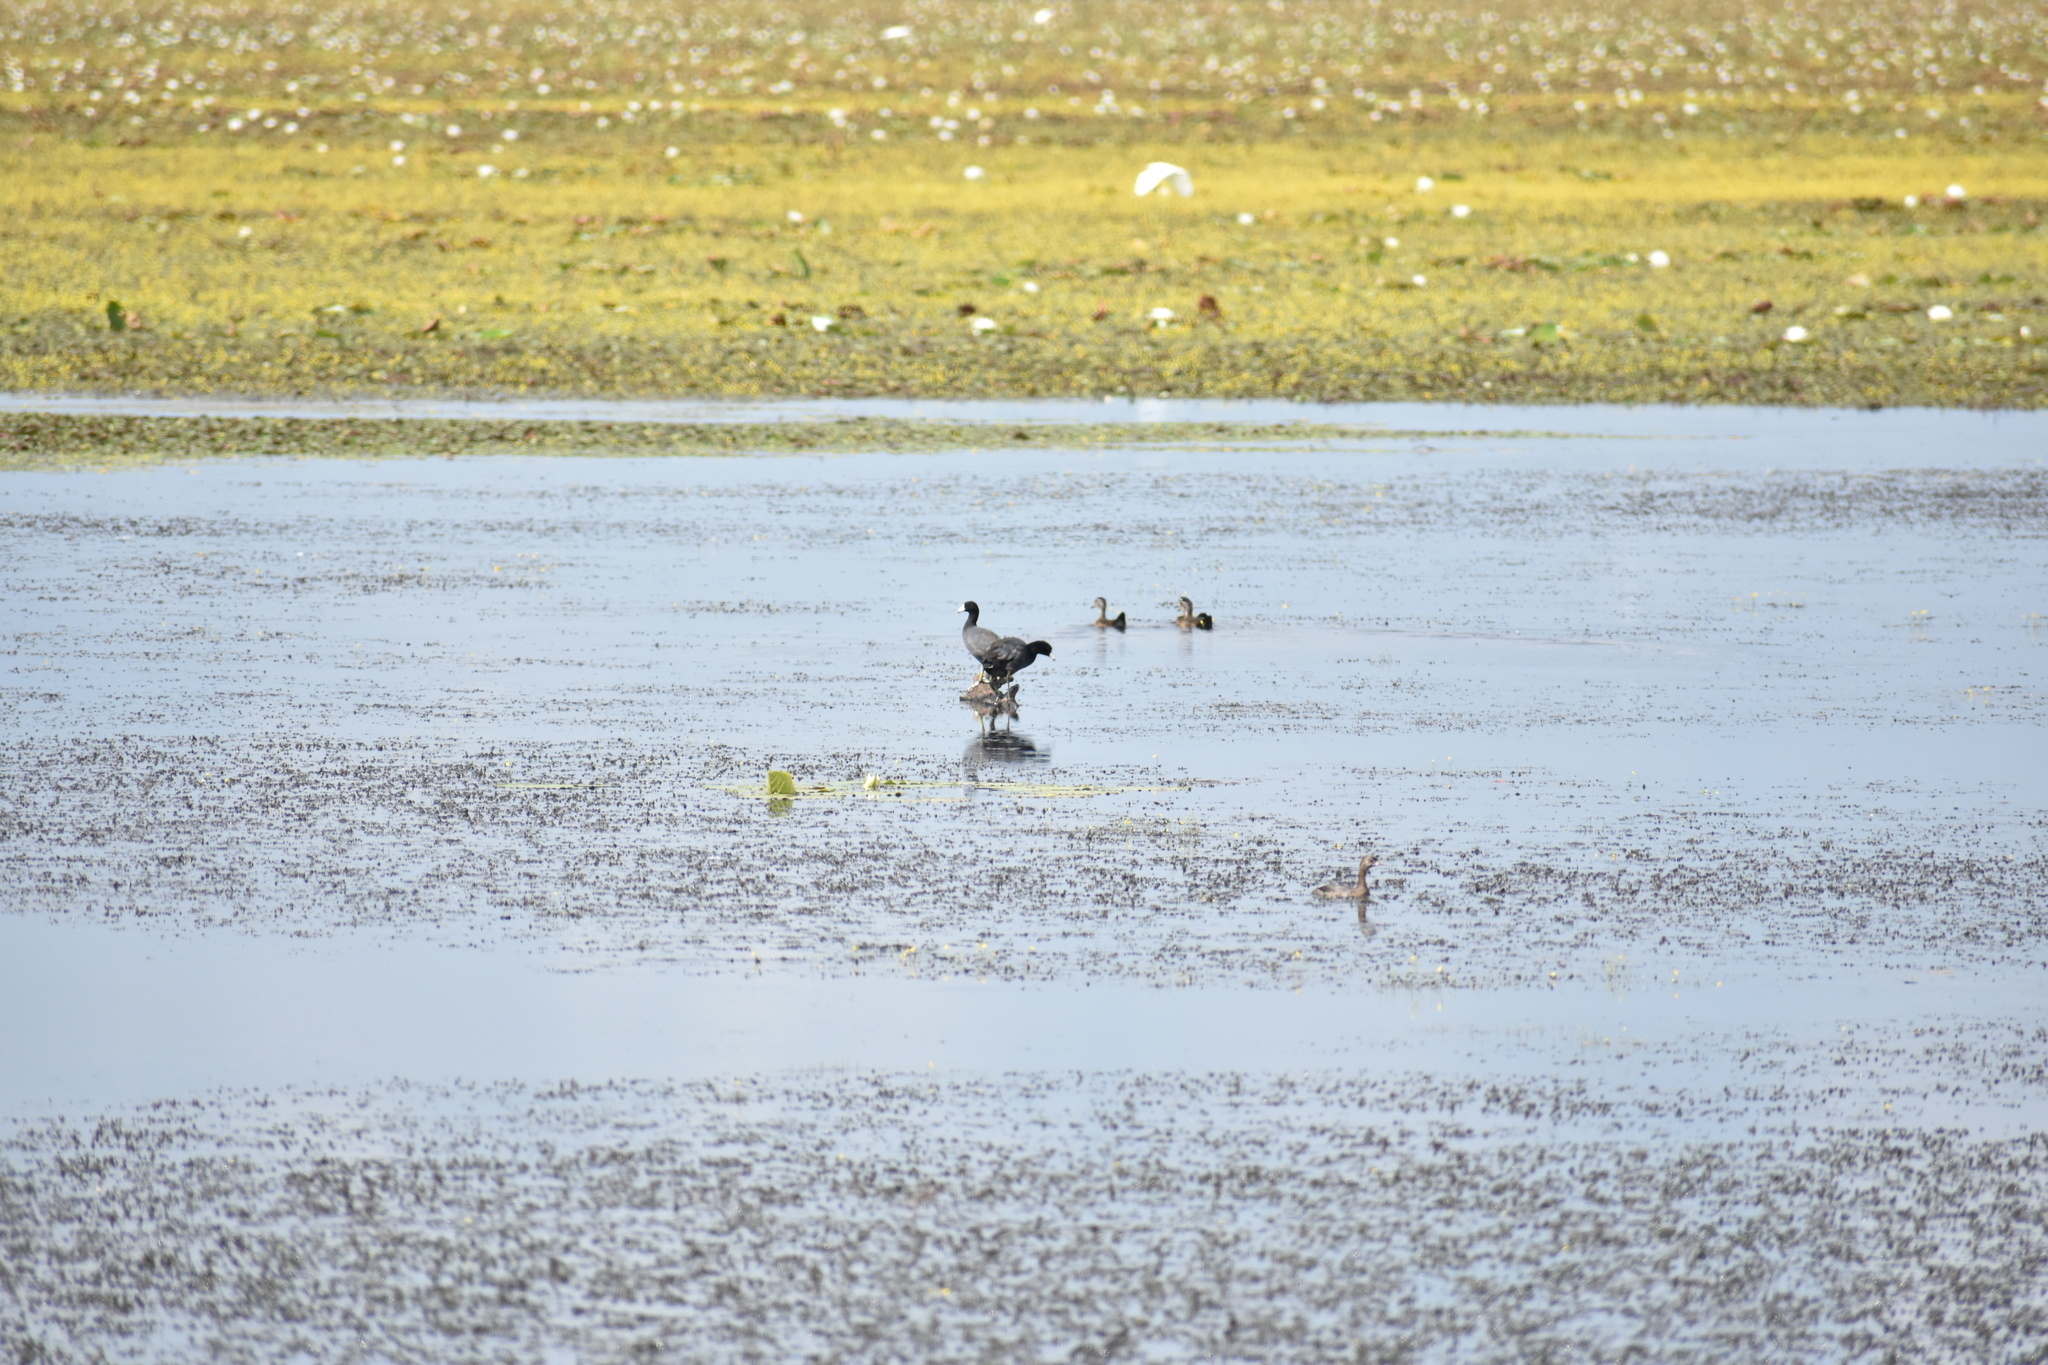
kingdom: Animalia
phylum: Chordata
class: Aves
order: Gruiformes
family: Rallidae
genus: Fulica
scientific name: Fulica americana
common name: American coot
